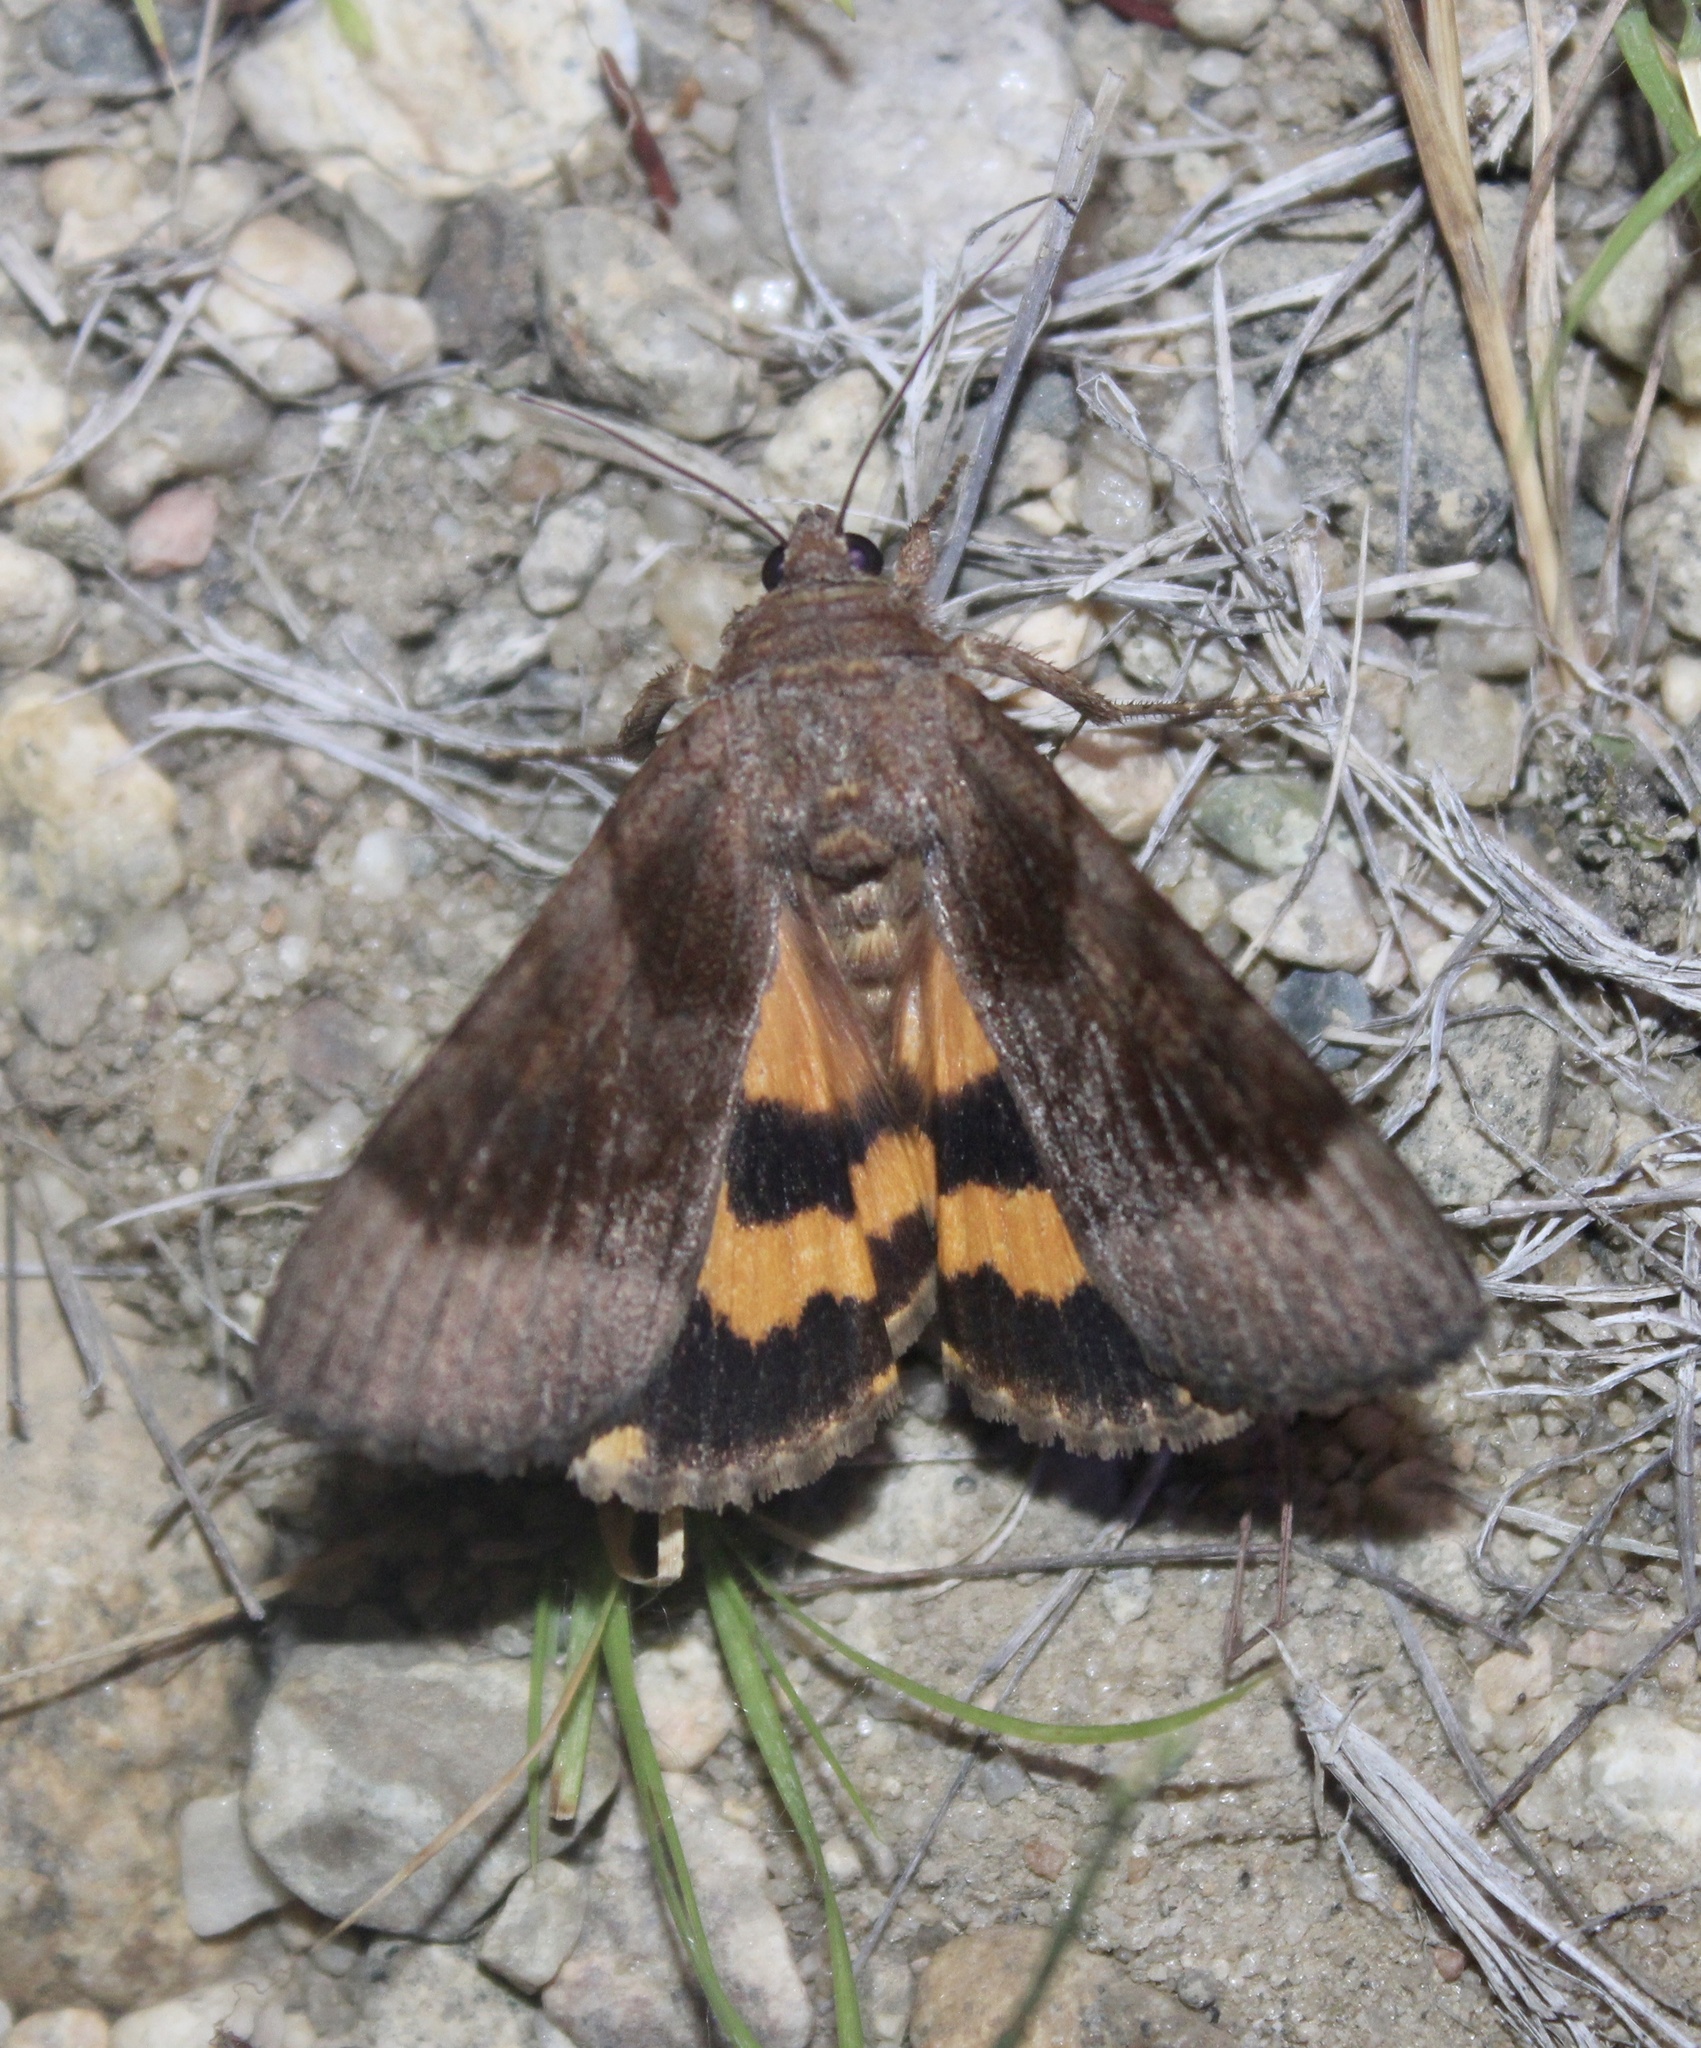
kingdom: Animalia
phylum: Arthropoda
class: Insecta
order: Lepidoptera
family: Erebidae
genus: Catocala
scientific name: Catocala badia
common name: Bay underwing
